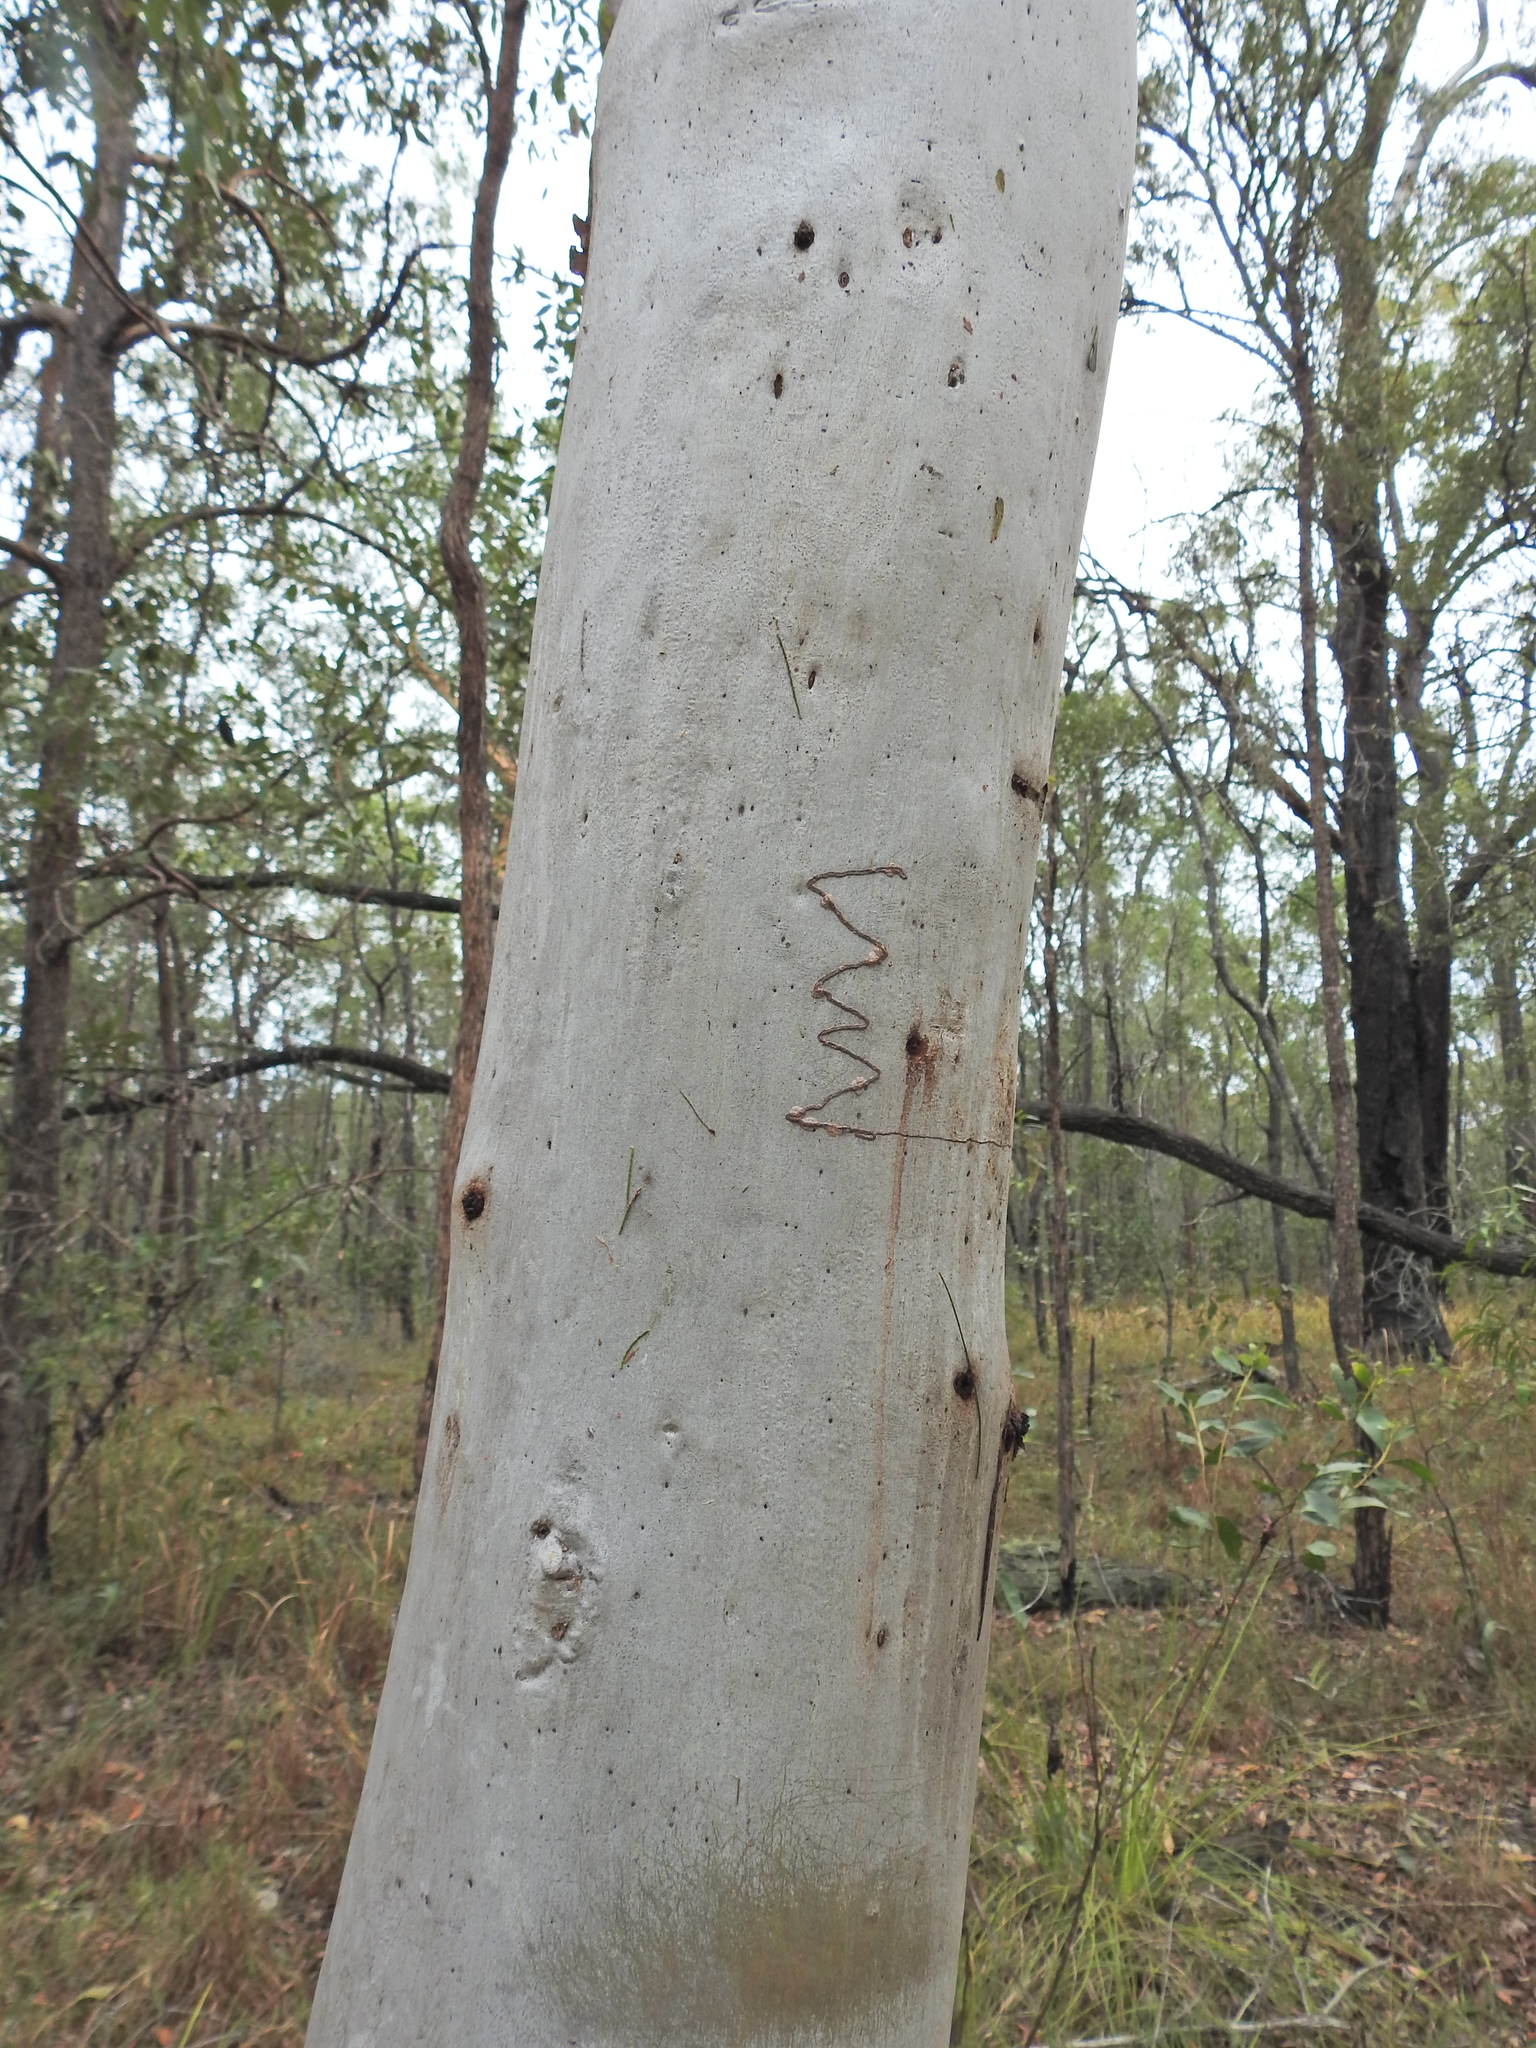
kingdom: Plantae
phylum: Tracheophyta
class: Magnoliopsida
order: Myrtales
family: Myrtaceae
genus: Eucalyptus
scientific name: Eucalyptus racemosa
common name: Scribbly gum
